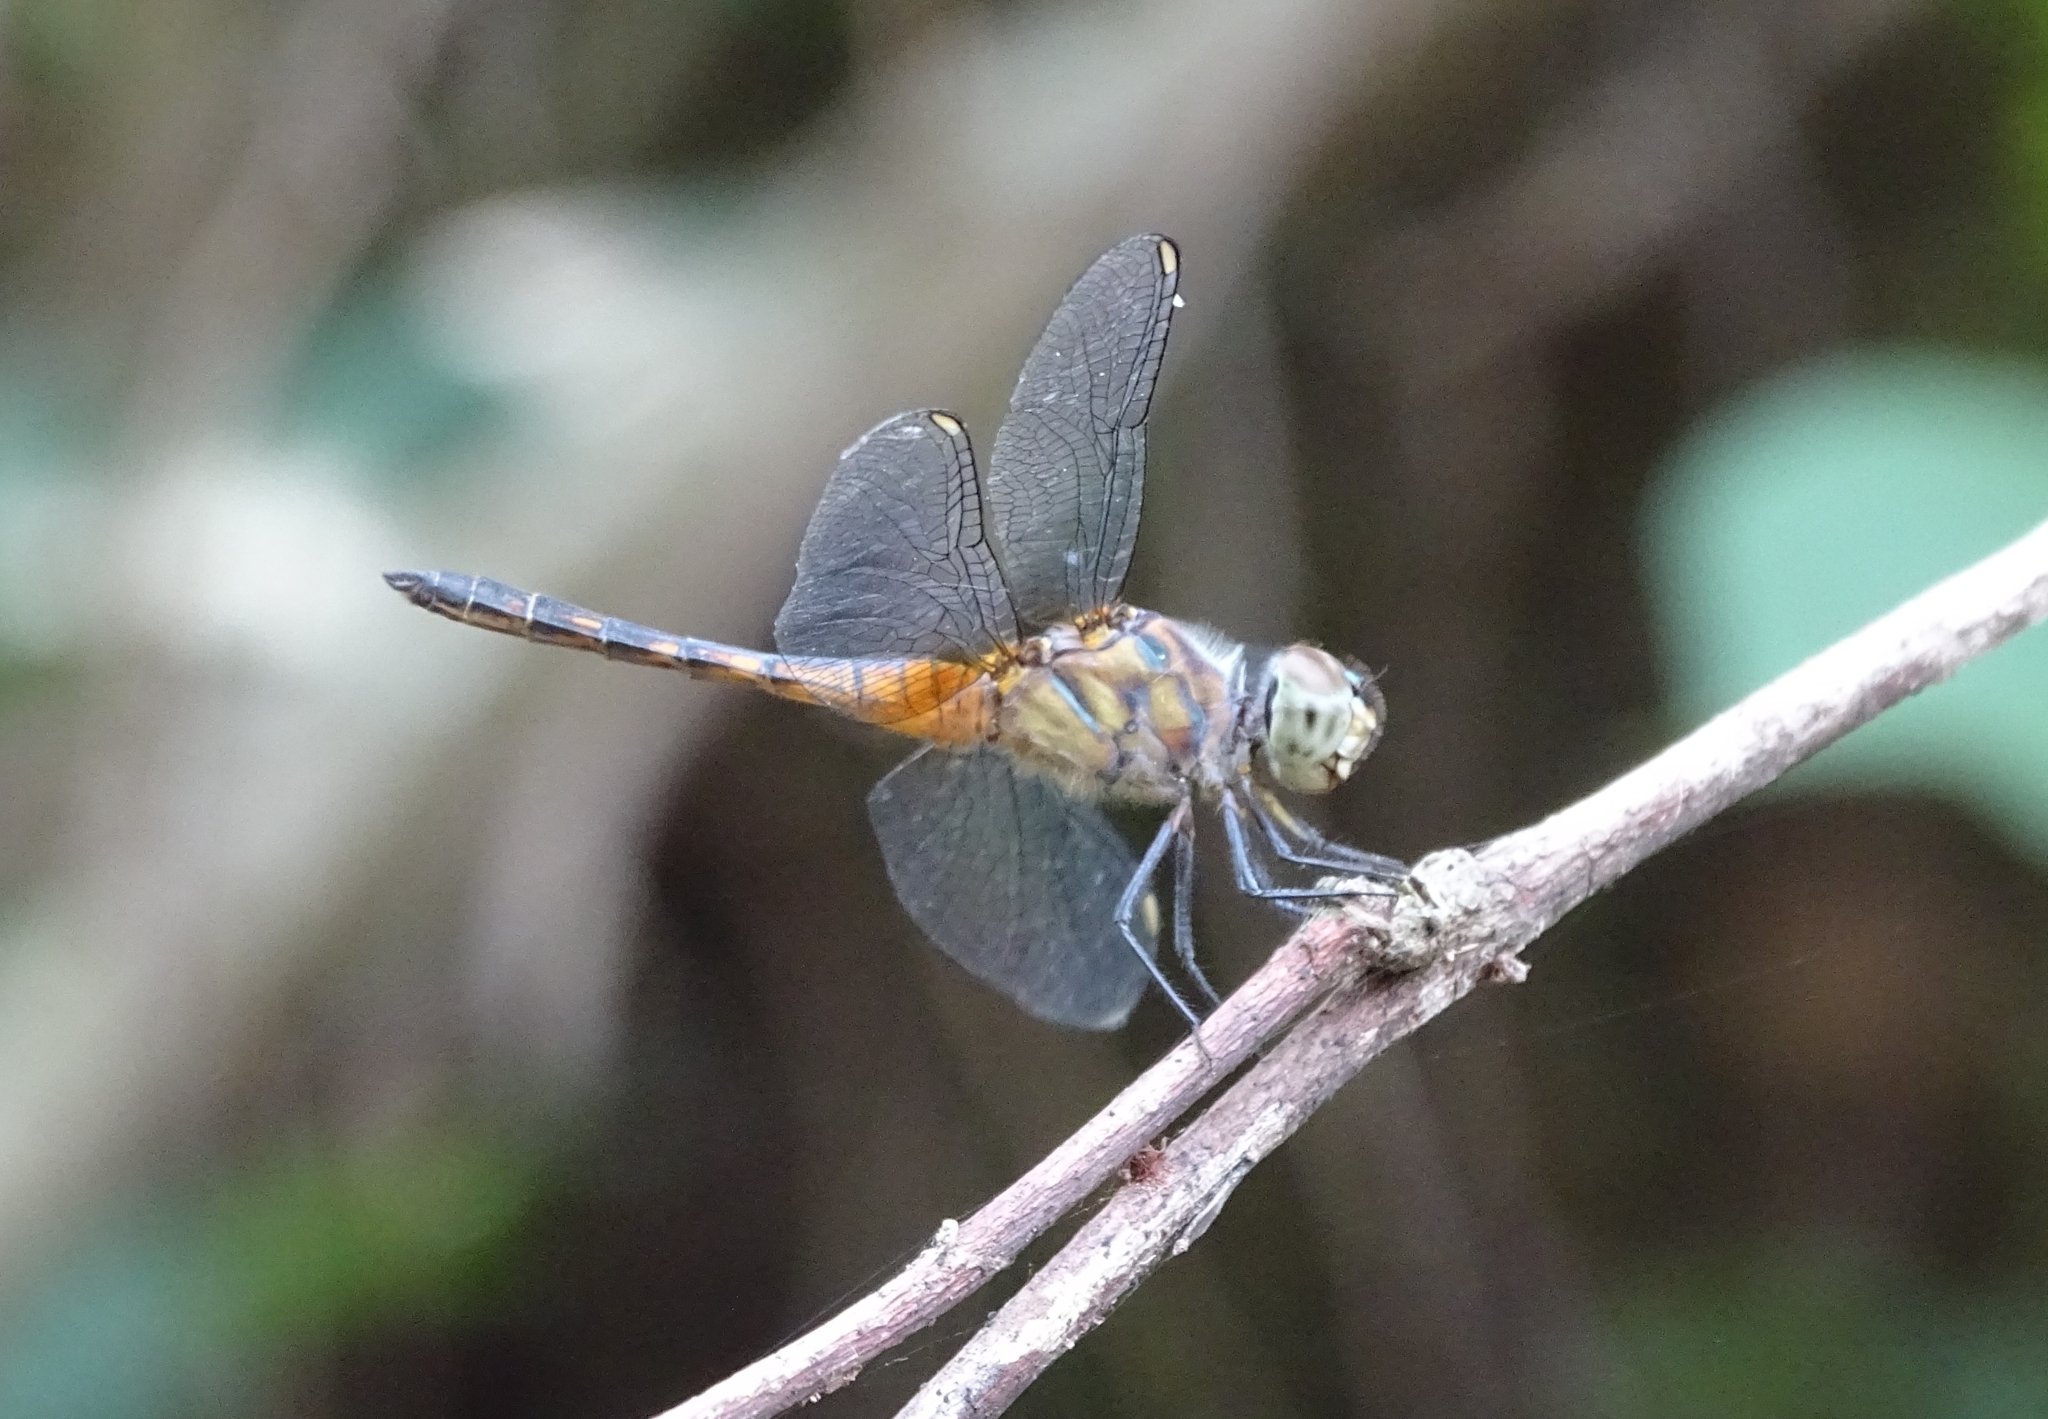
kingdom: Animalia
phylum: Arthropoda
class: Insecta
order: Odonata
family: Libellulidae
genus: Brachydiplax
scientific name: Brachydiplax chalybea
